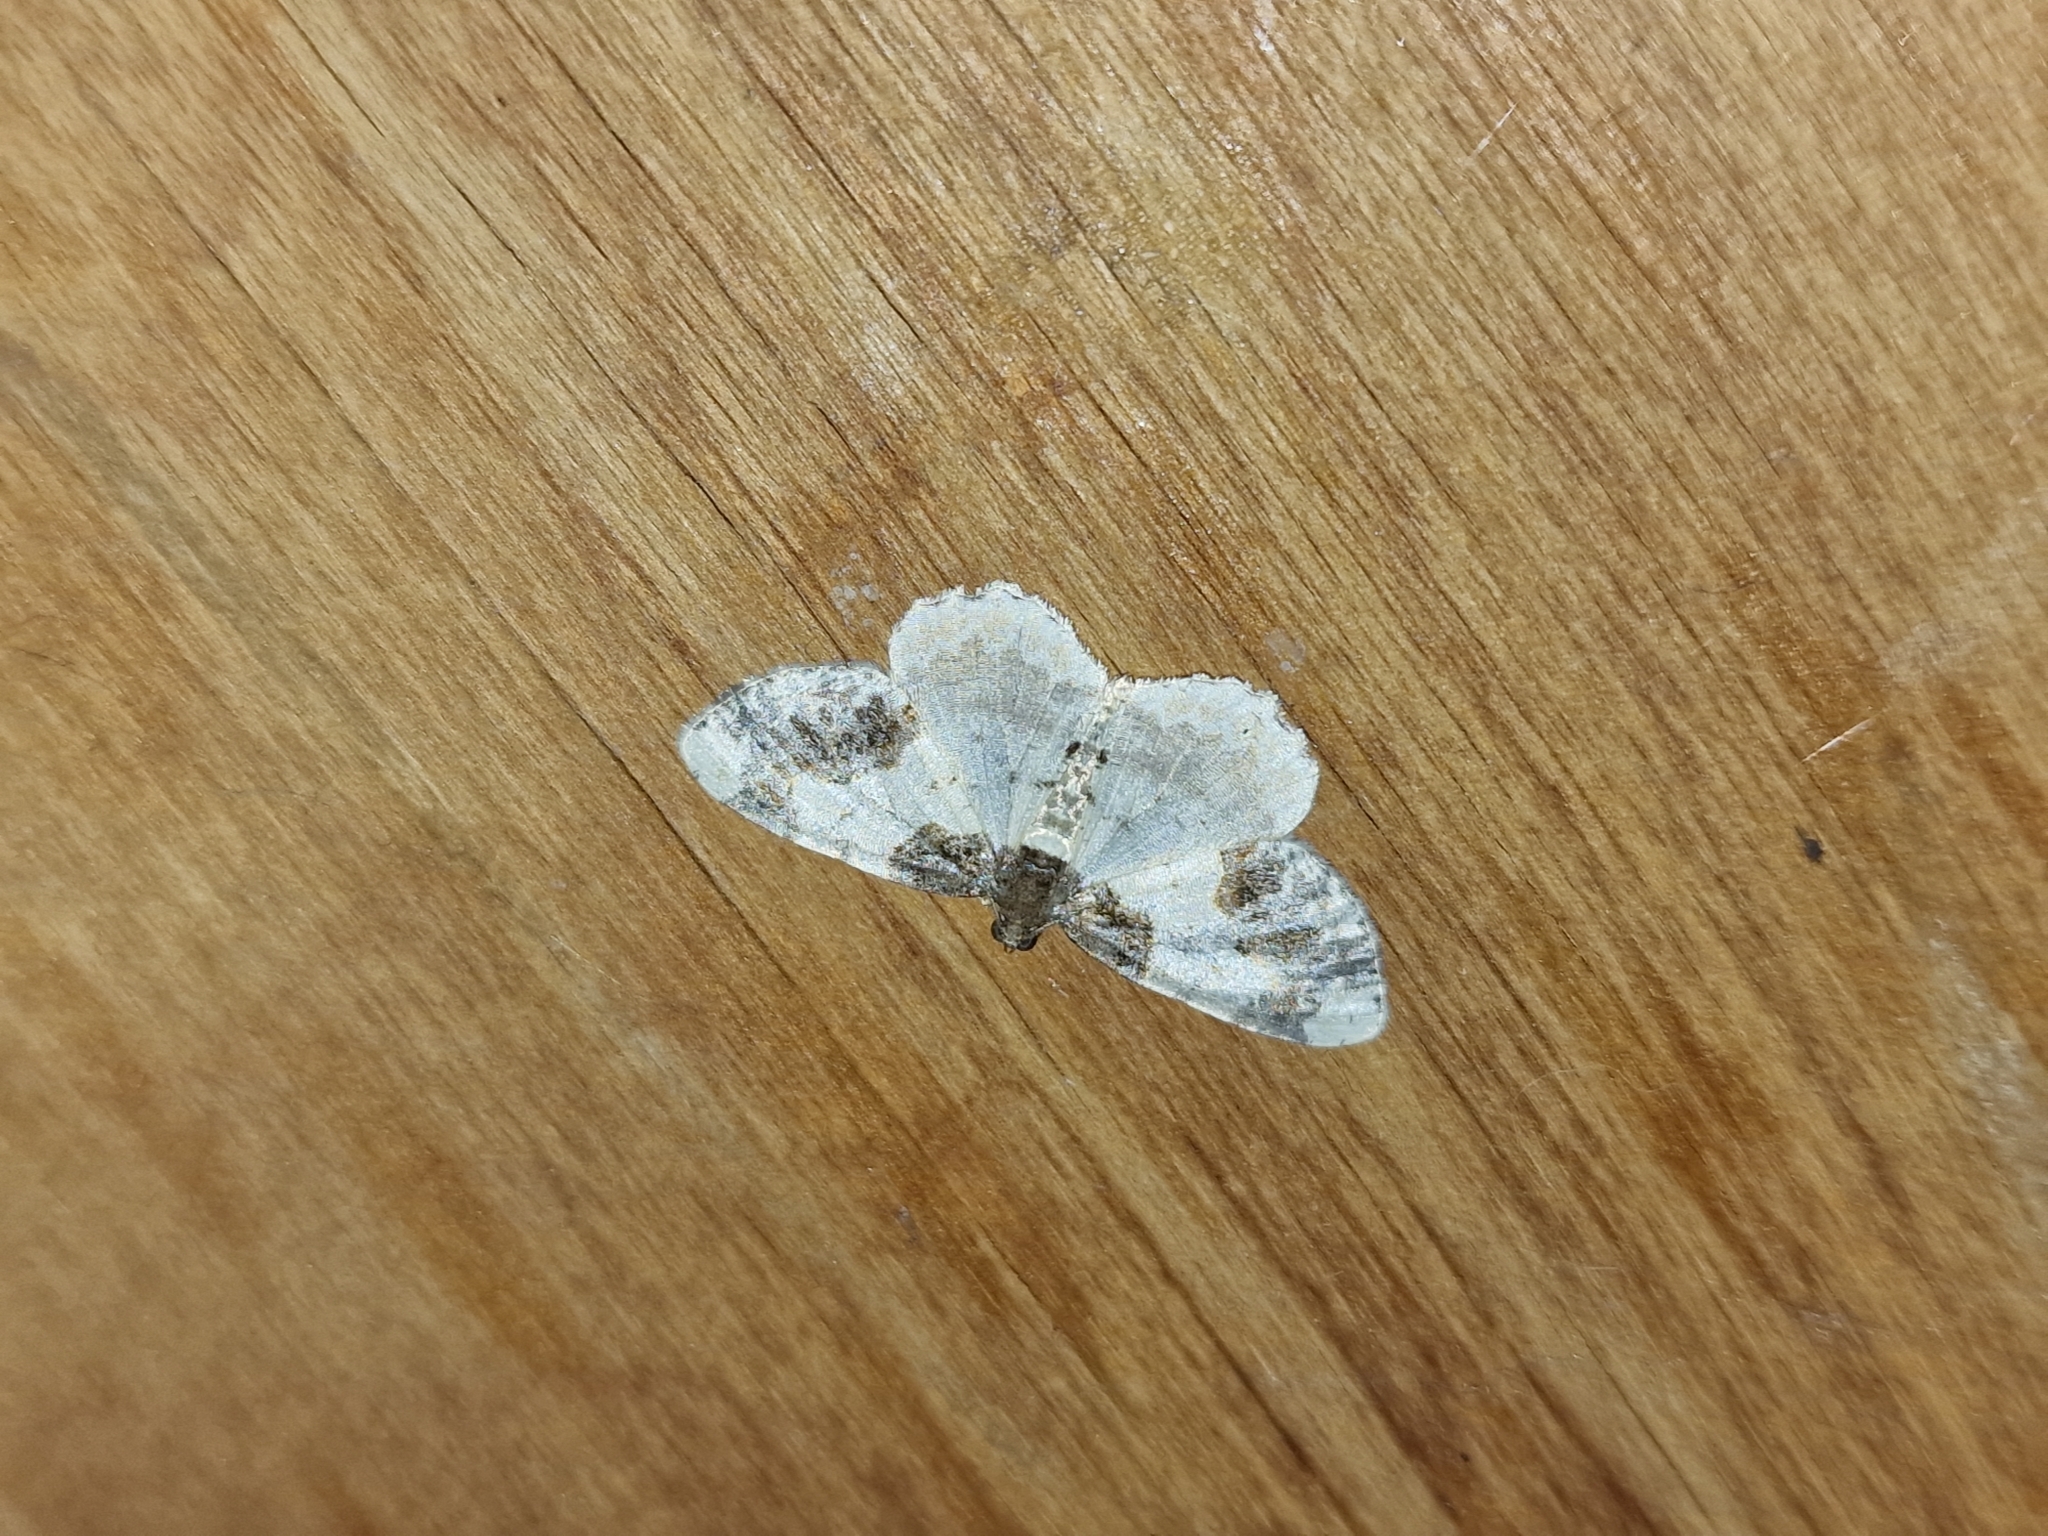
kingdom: Animalia
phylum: Arthropoda
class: Insecta
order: Lepidoptera
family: Geometridae
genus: Ligdia
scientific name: Ligdia adustata
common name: Scorched carpet
